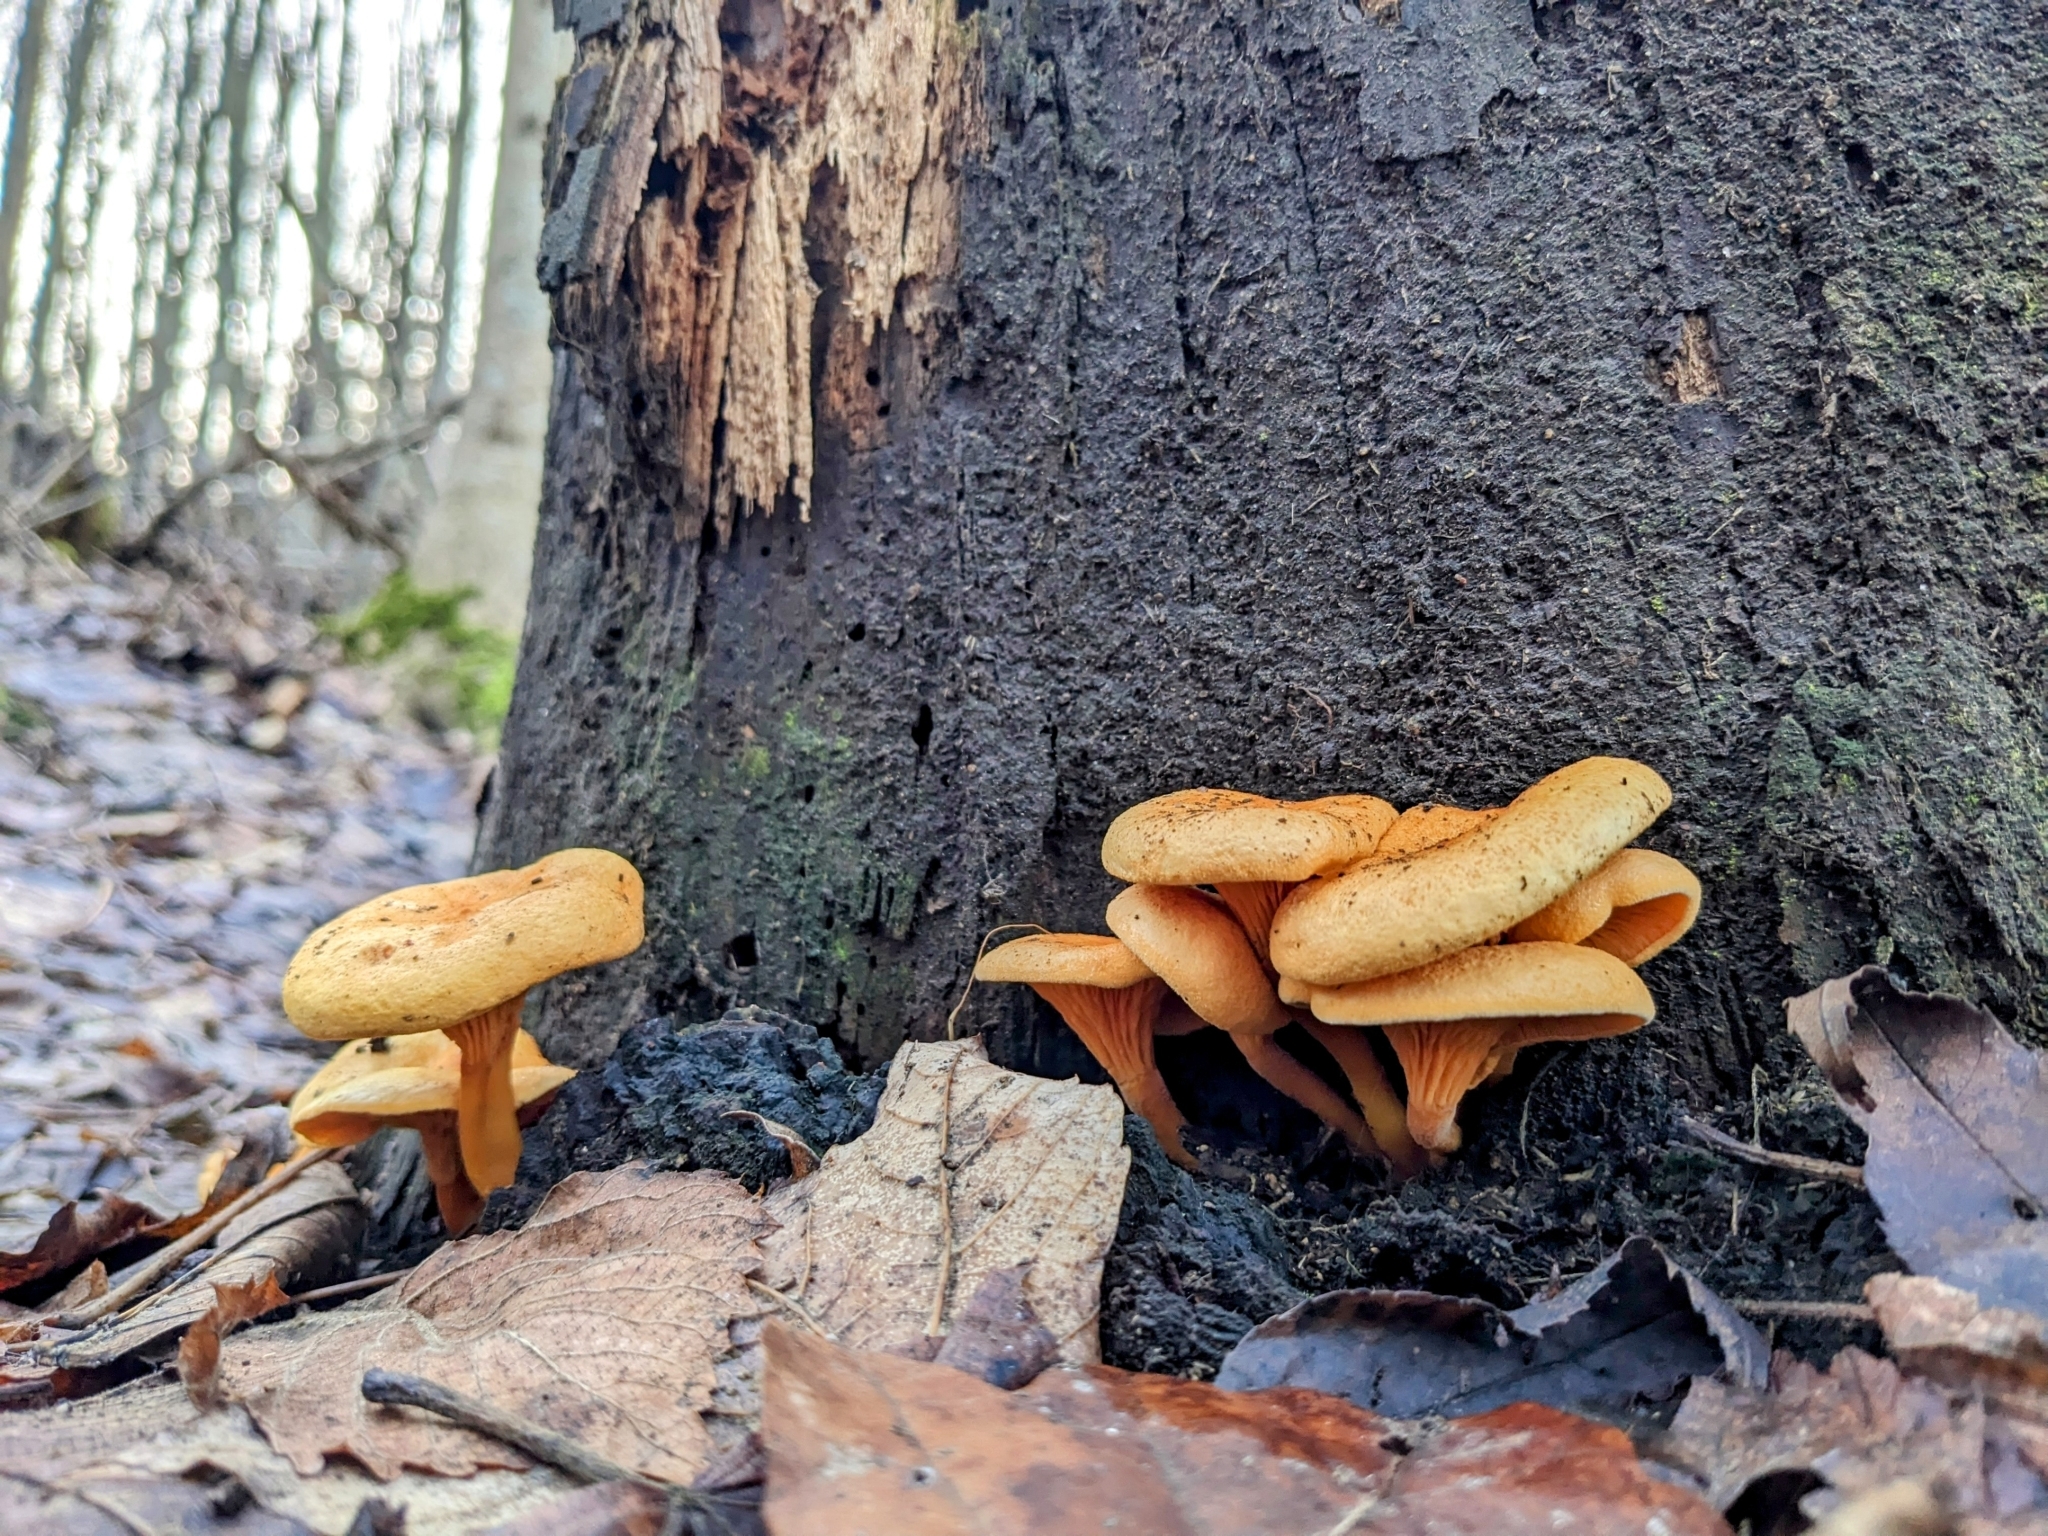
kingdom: Fungi
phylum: Basidiomycota
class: Agaricomycetes
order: Boletales
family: Hygrophoropsidaceae
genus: Hygrophoropsis
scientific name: Hygrophoropsis aurantiaca
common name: False chanterelle
